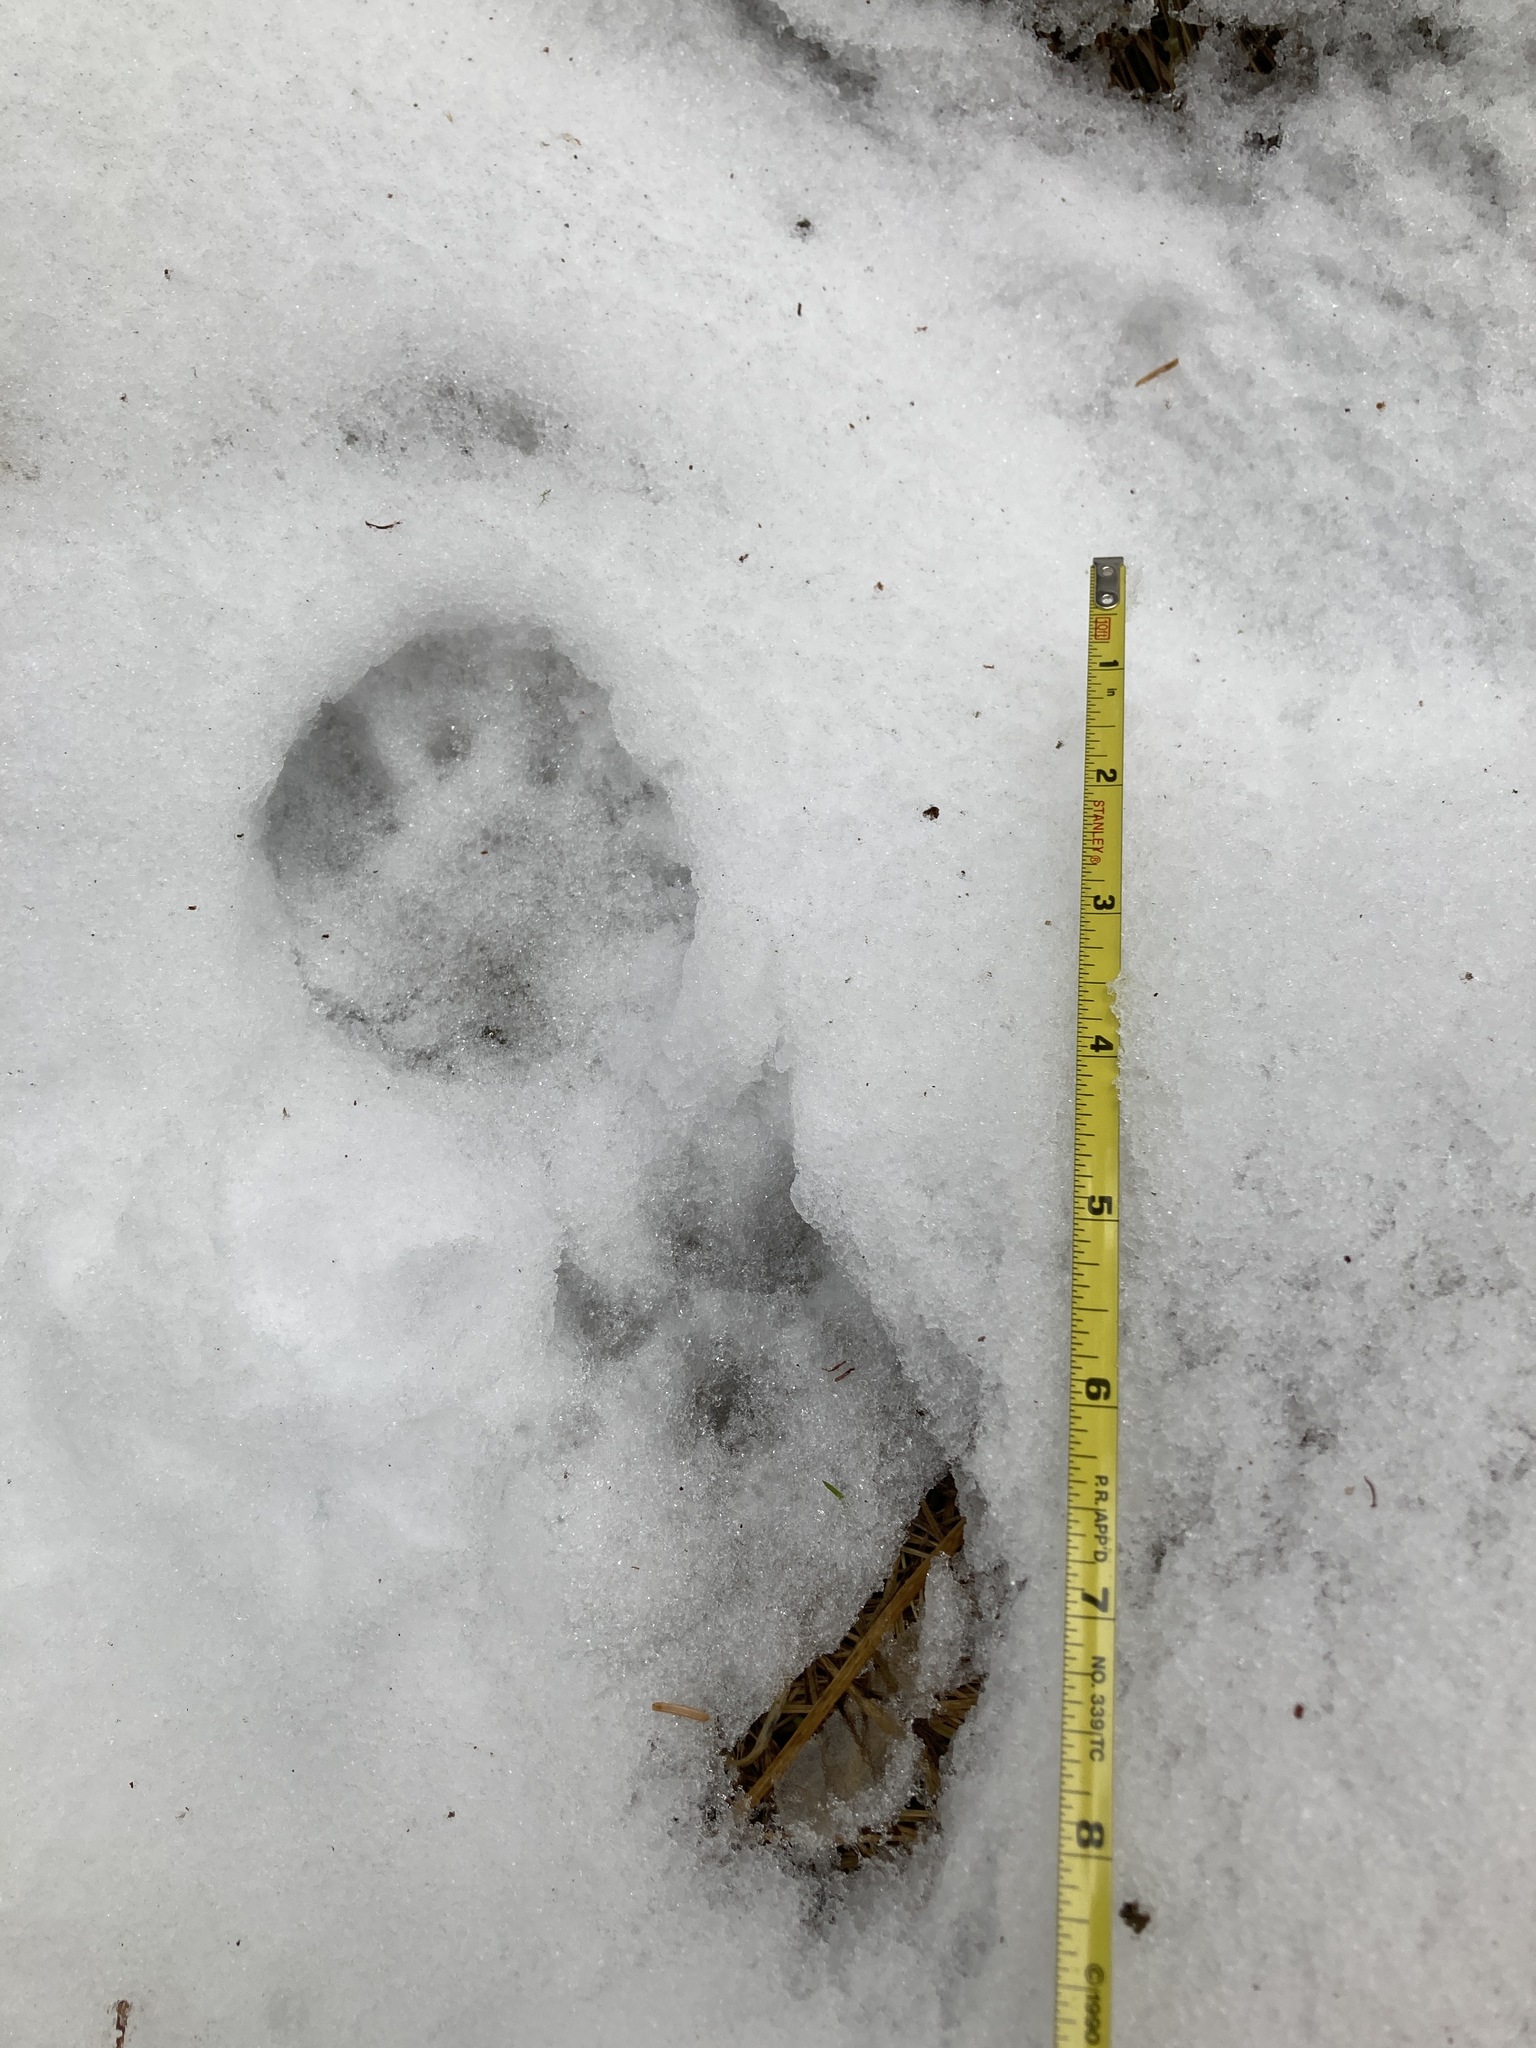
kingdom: Animalia
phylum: Chordata
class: Mammalia
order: Carnivora
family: Mustelidae
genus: Pekania
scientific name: Pekania pennanti
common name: Fisher
